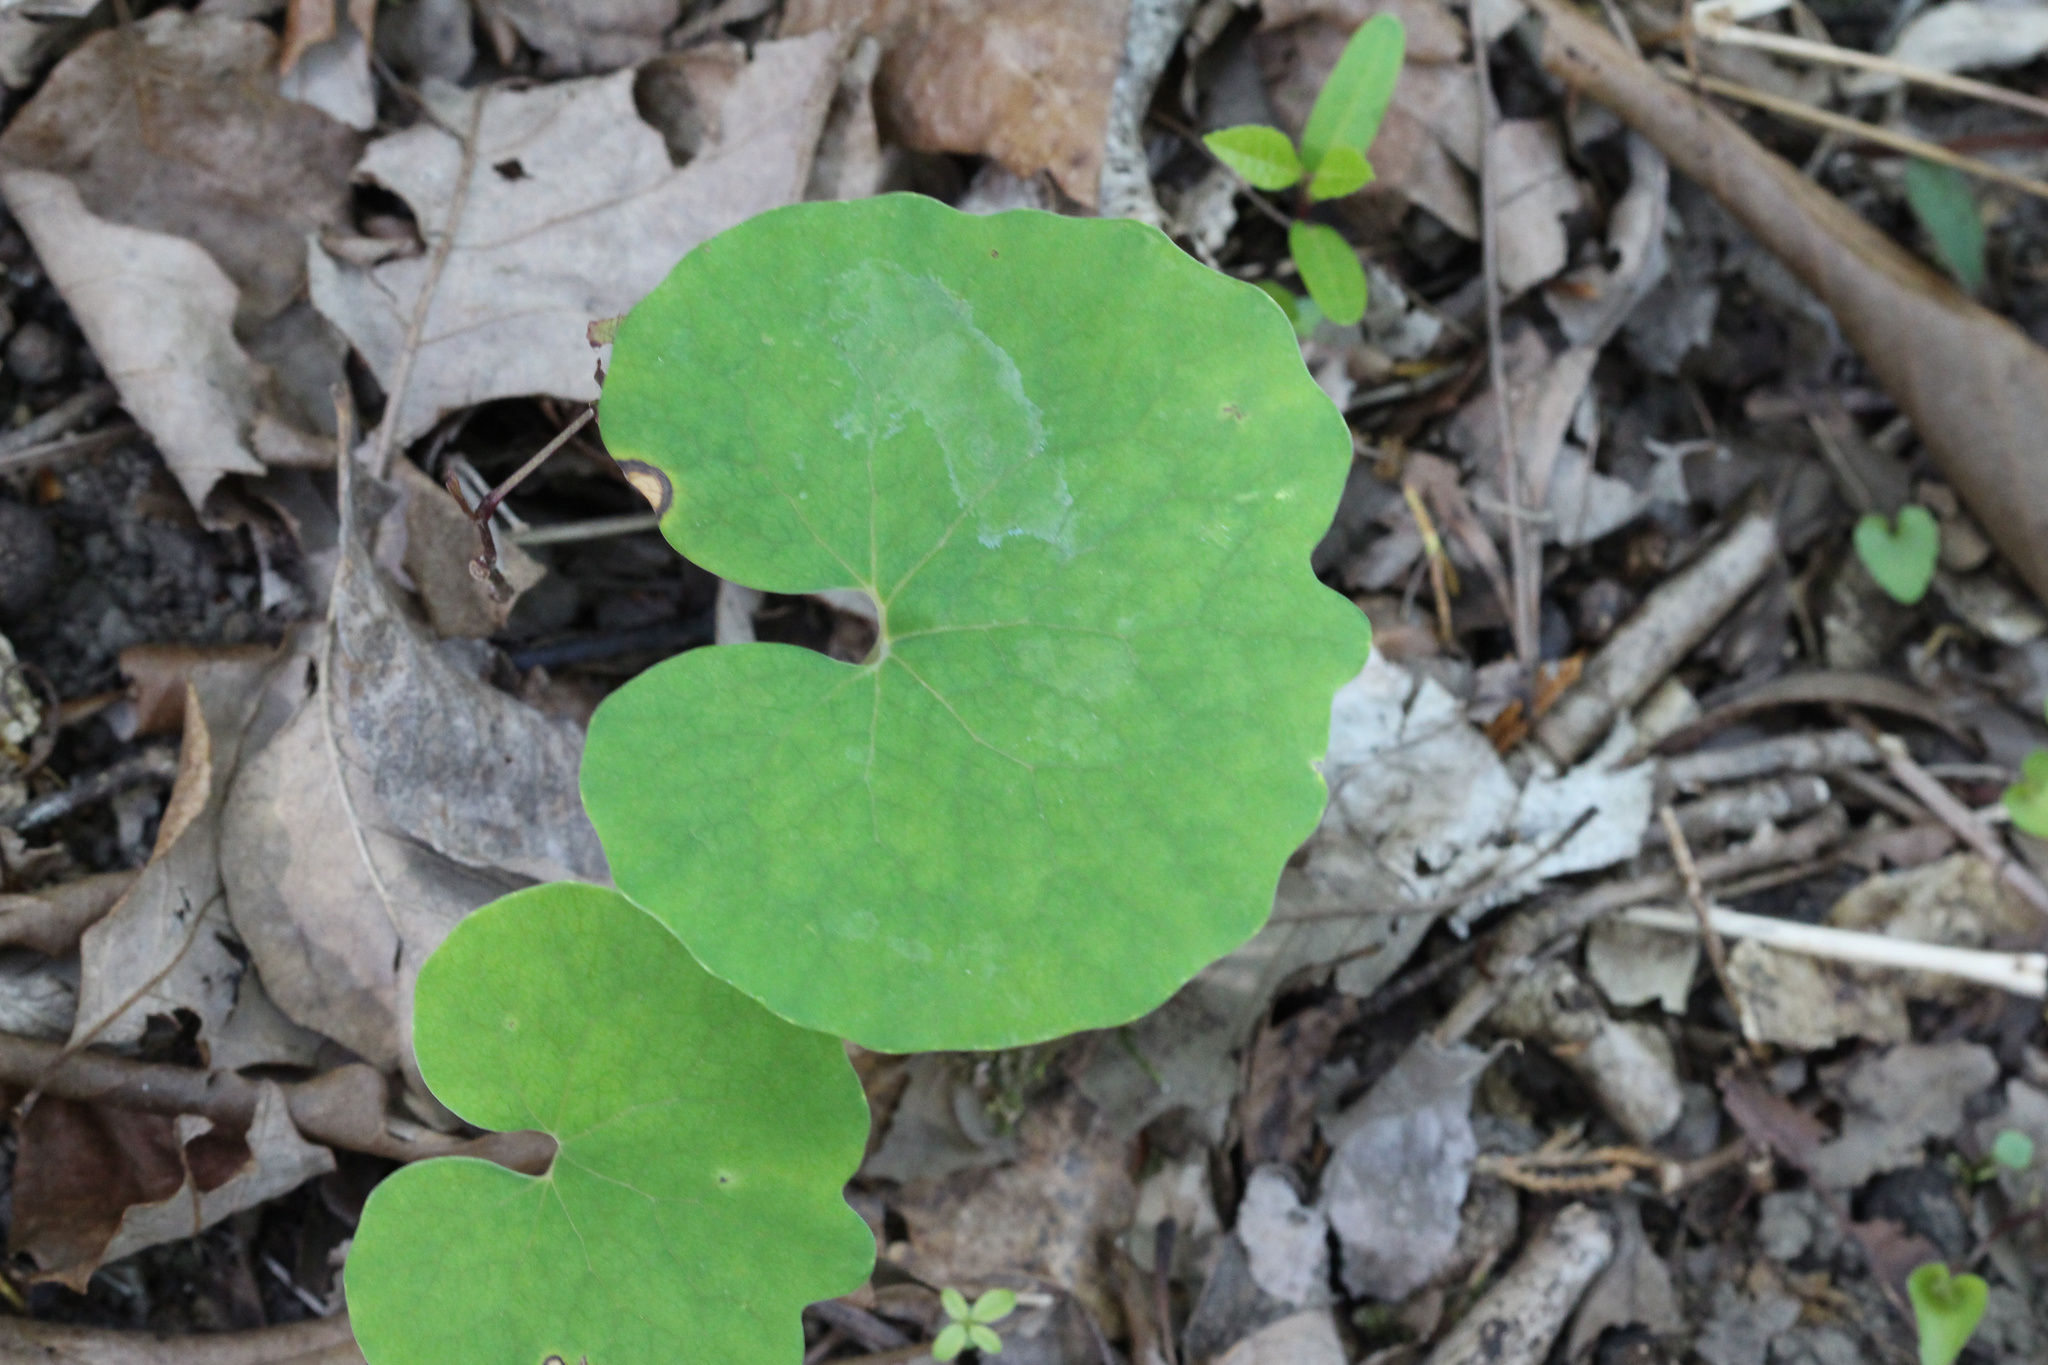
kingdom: Plantae
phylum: Tracheophyta
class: Magnoliopsida
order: Ranunculales
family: Papaveraceae
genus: Sanguinaria
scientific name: Sanguinaria canadensis
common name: Bloodroot
